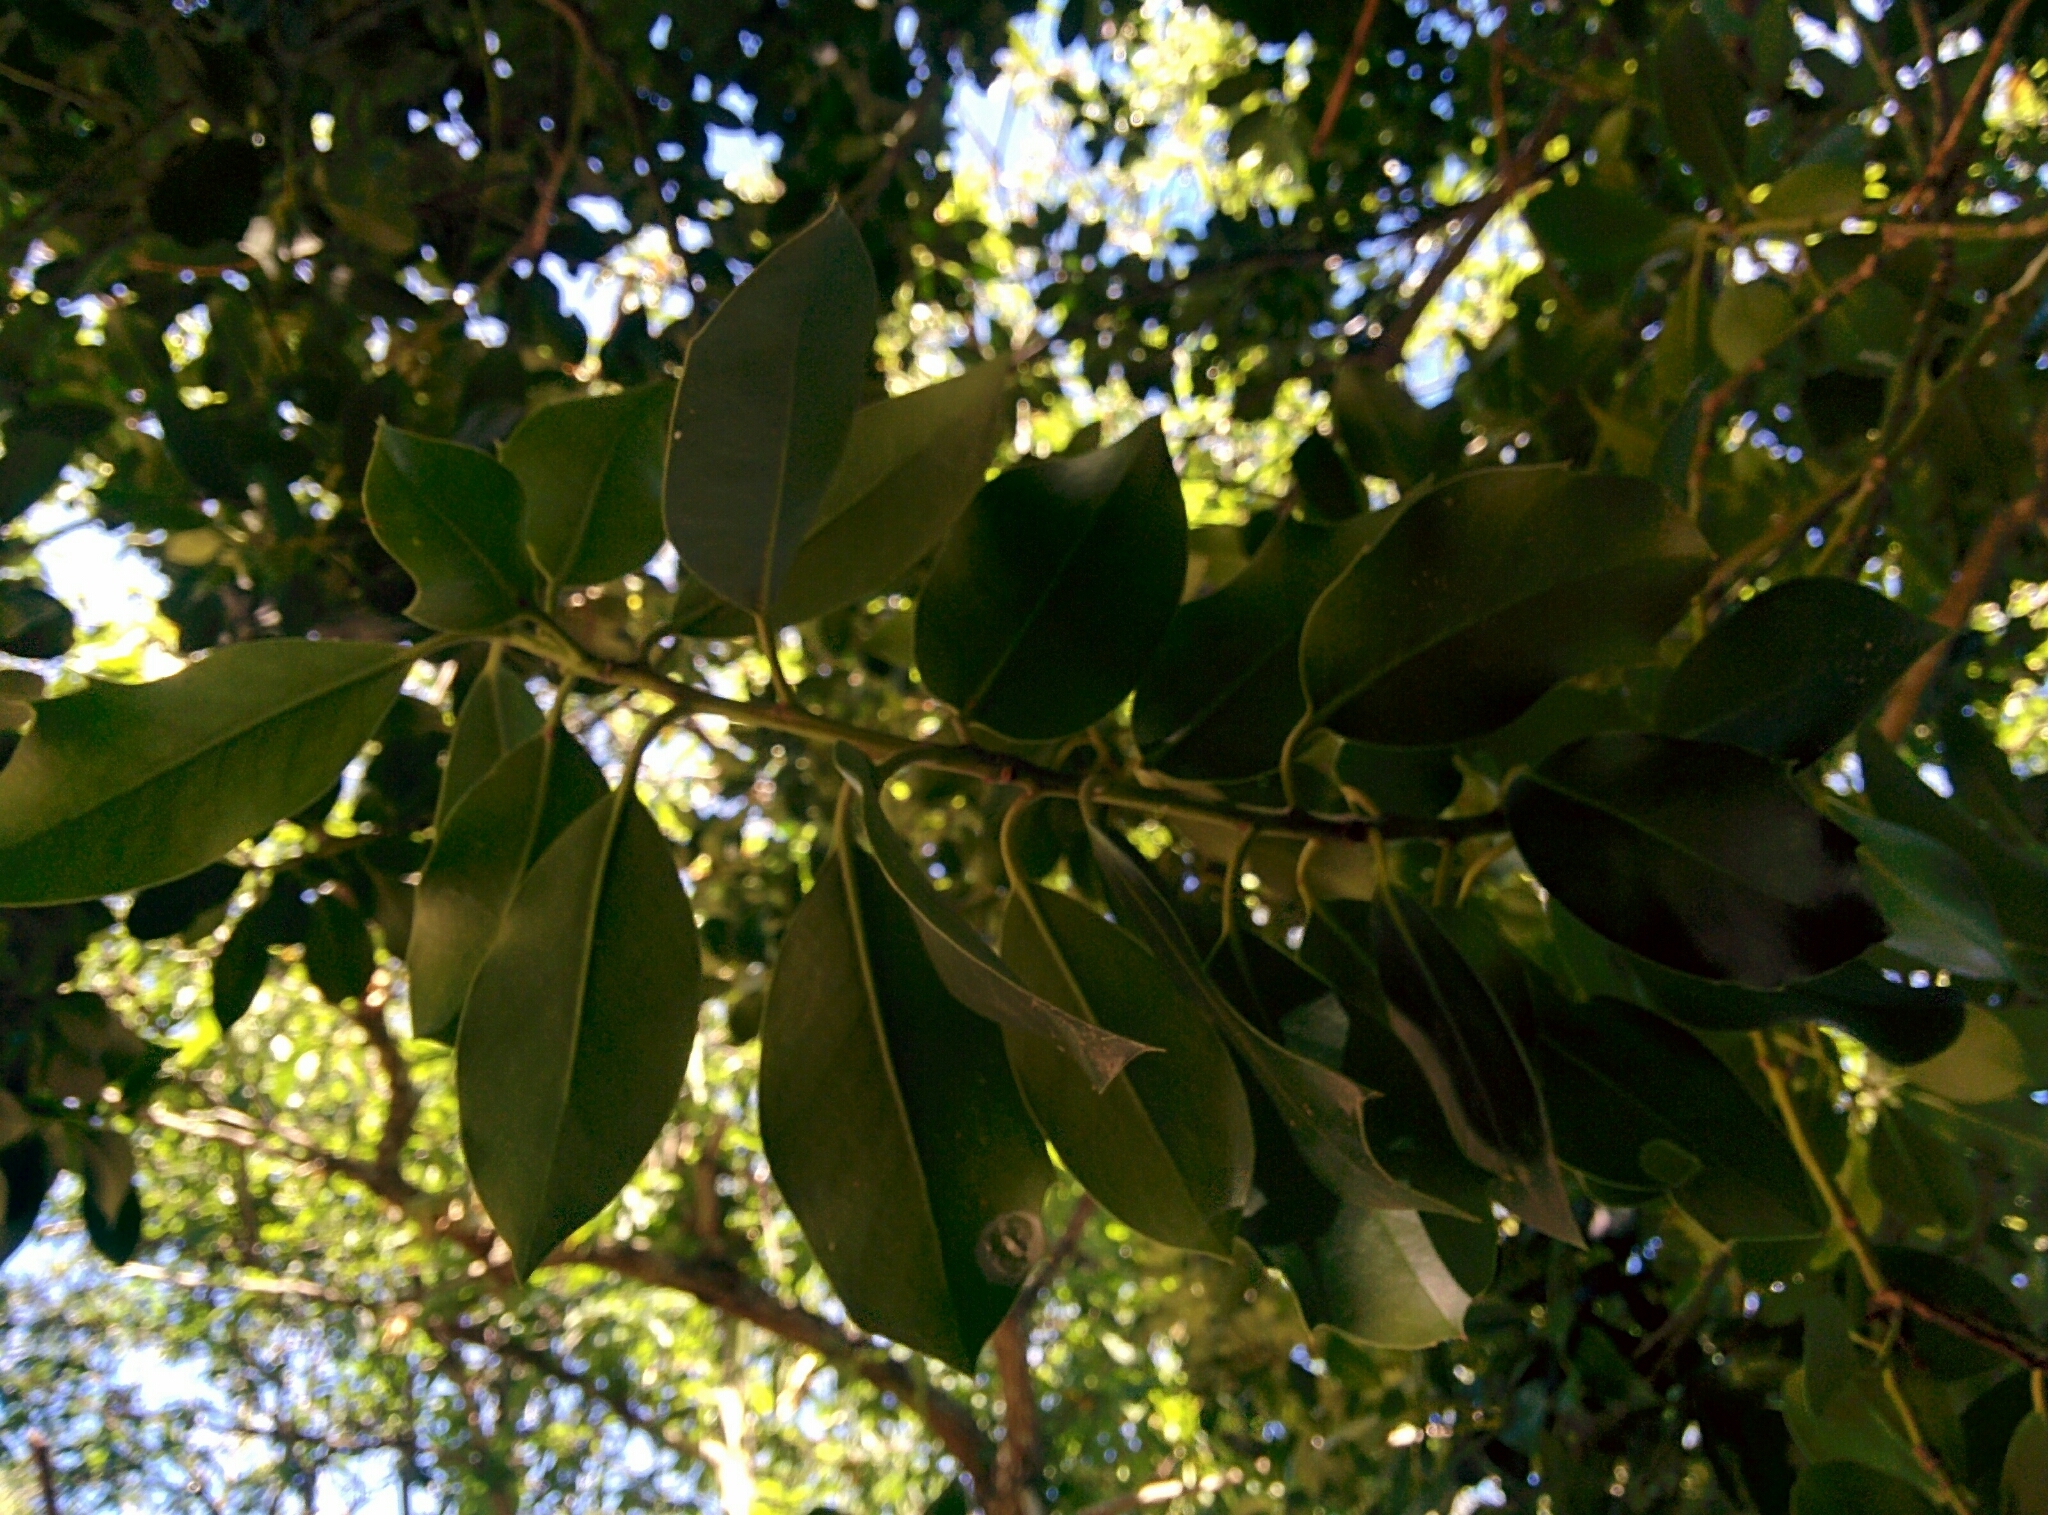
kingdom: Plantae
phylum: Tracheophyta
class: Magnoliopsida
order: Aquifoliales
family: Aquifoliaceae
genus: Ilex
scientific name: Ilex aquifolium
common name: English holly
